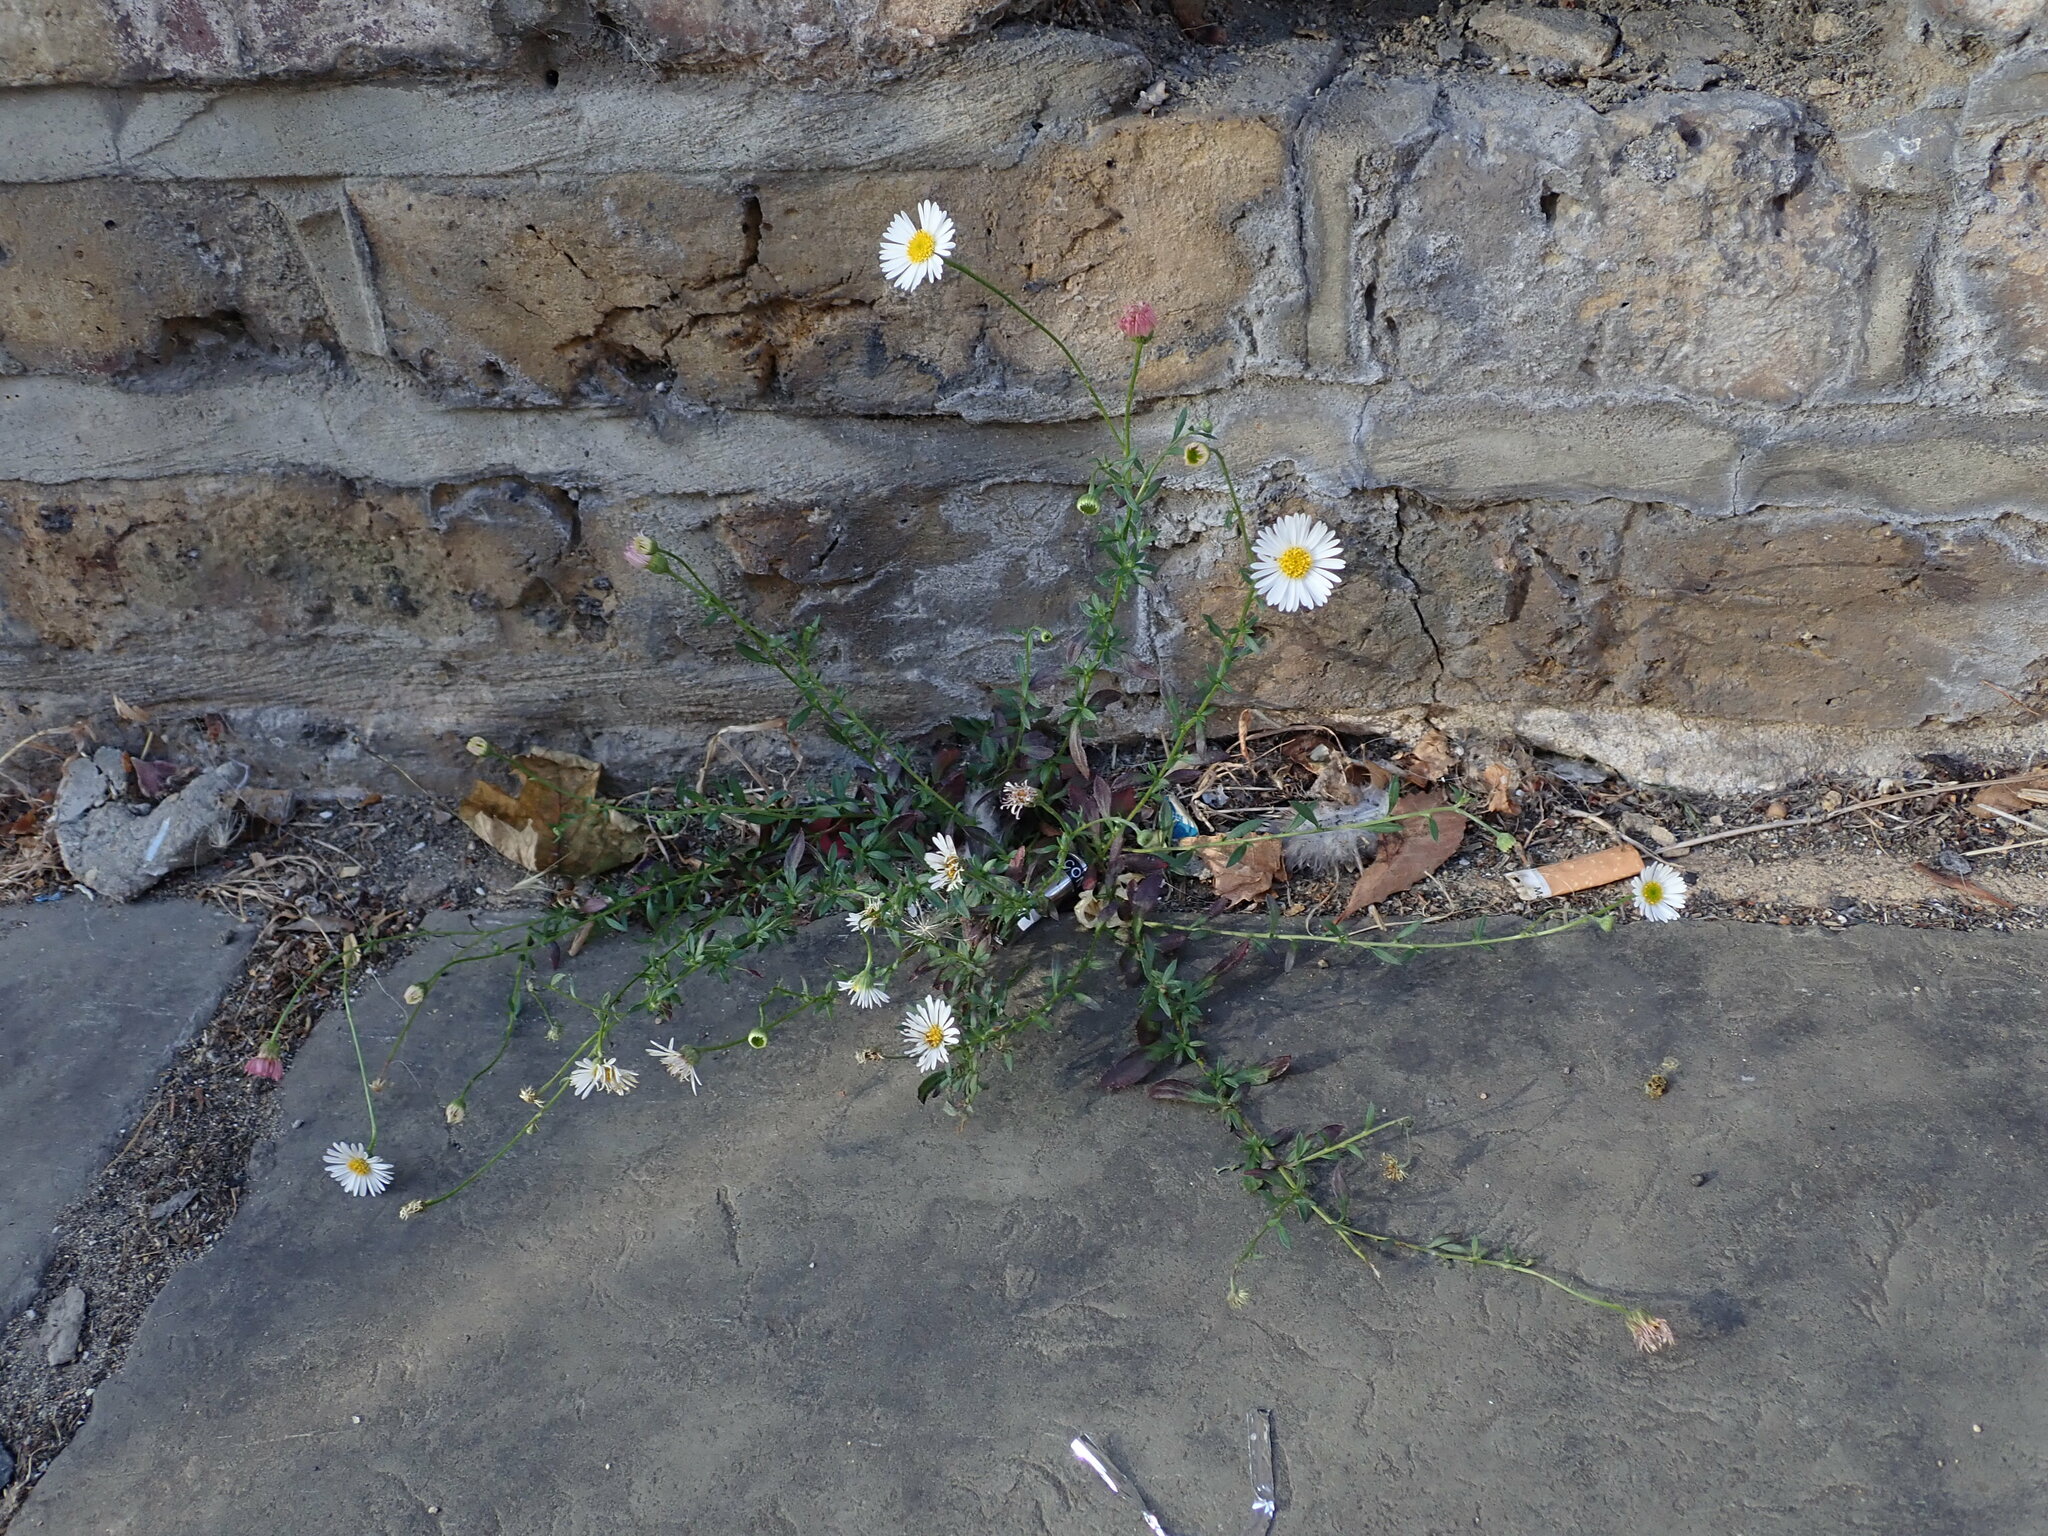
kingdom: Plantae
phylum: Tracheophyta
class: Magnoliopsida
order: Asterales
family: Asteraceae
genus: Erigeron
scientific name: Erigeron karvinskianus
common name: Mexican fleabane
